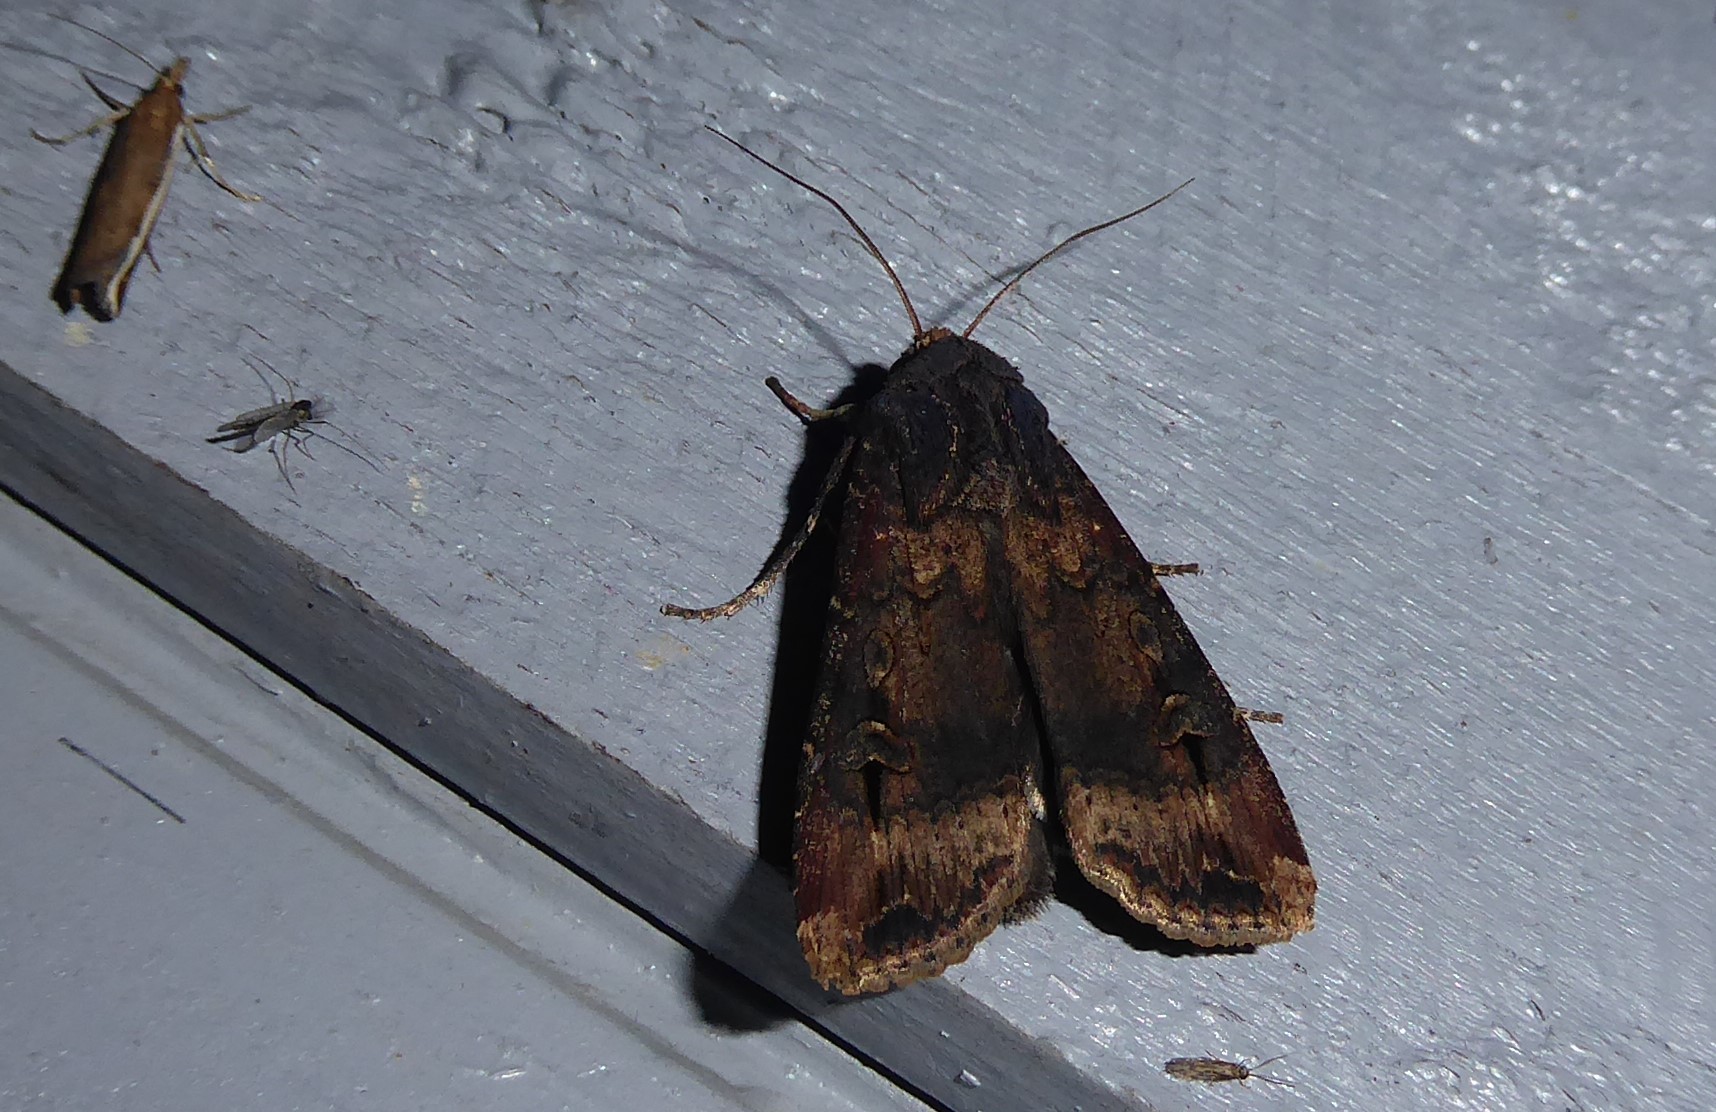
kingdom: Animalia
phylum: Arthropoda
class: Insecta
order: Lepidoptera
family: Noctuidae
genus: Agrotis
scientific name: Agrotis ipsilon
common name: Dark sword-grass
